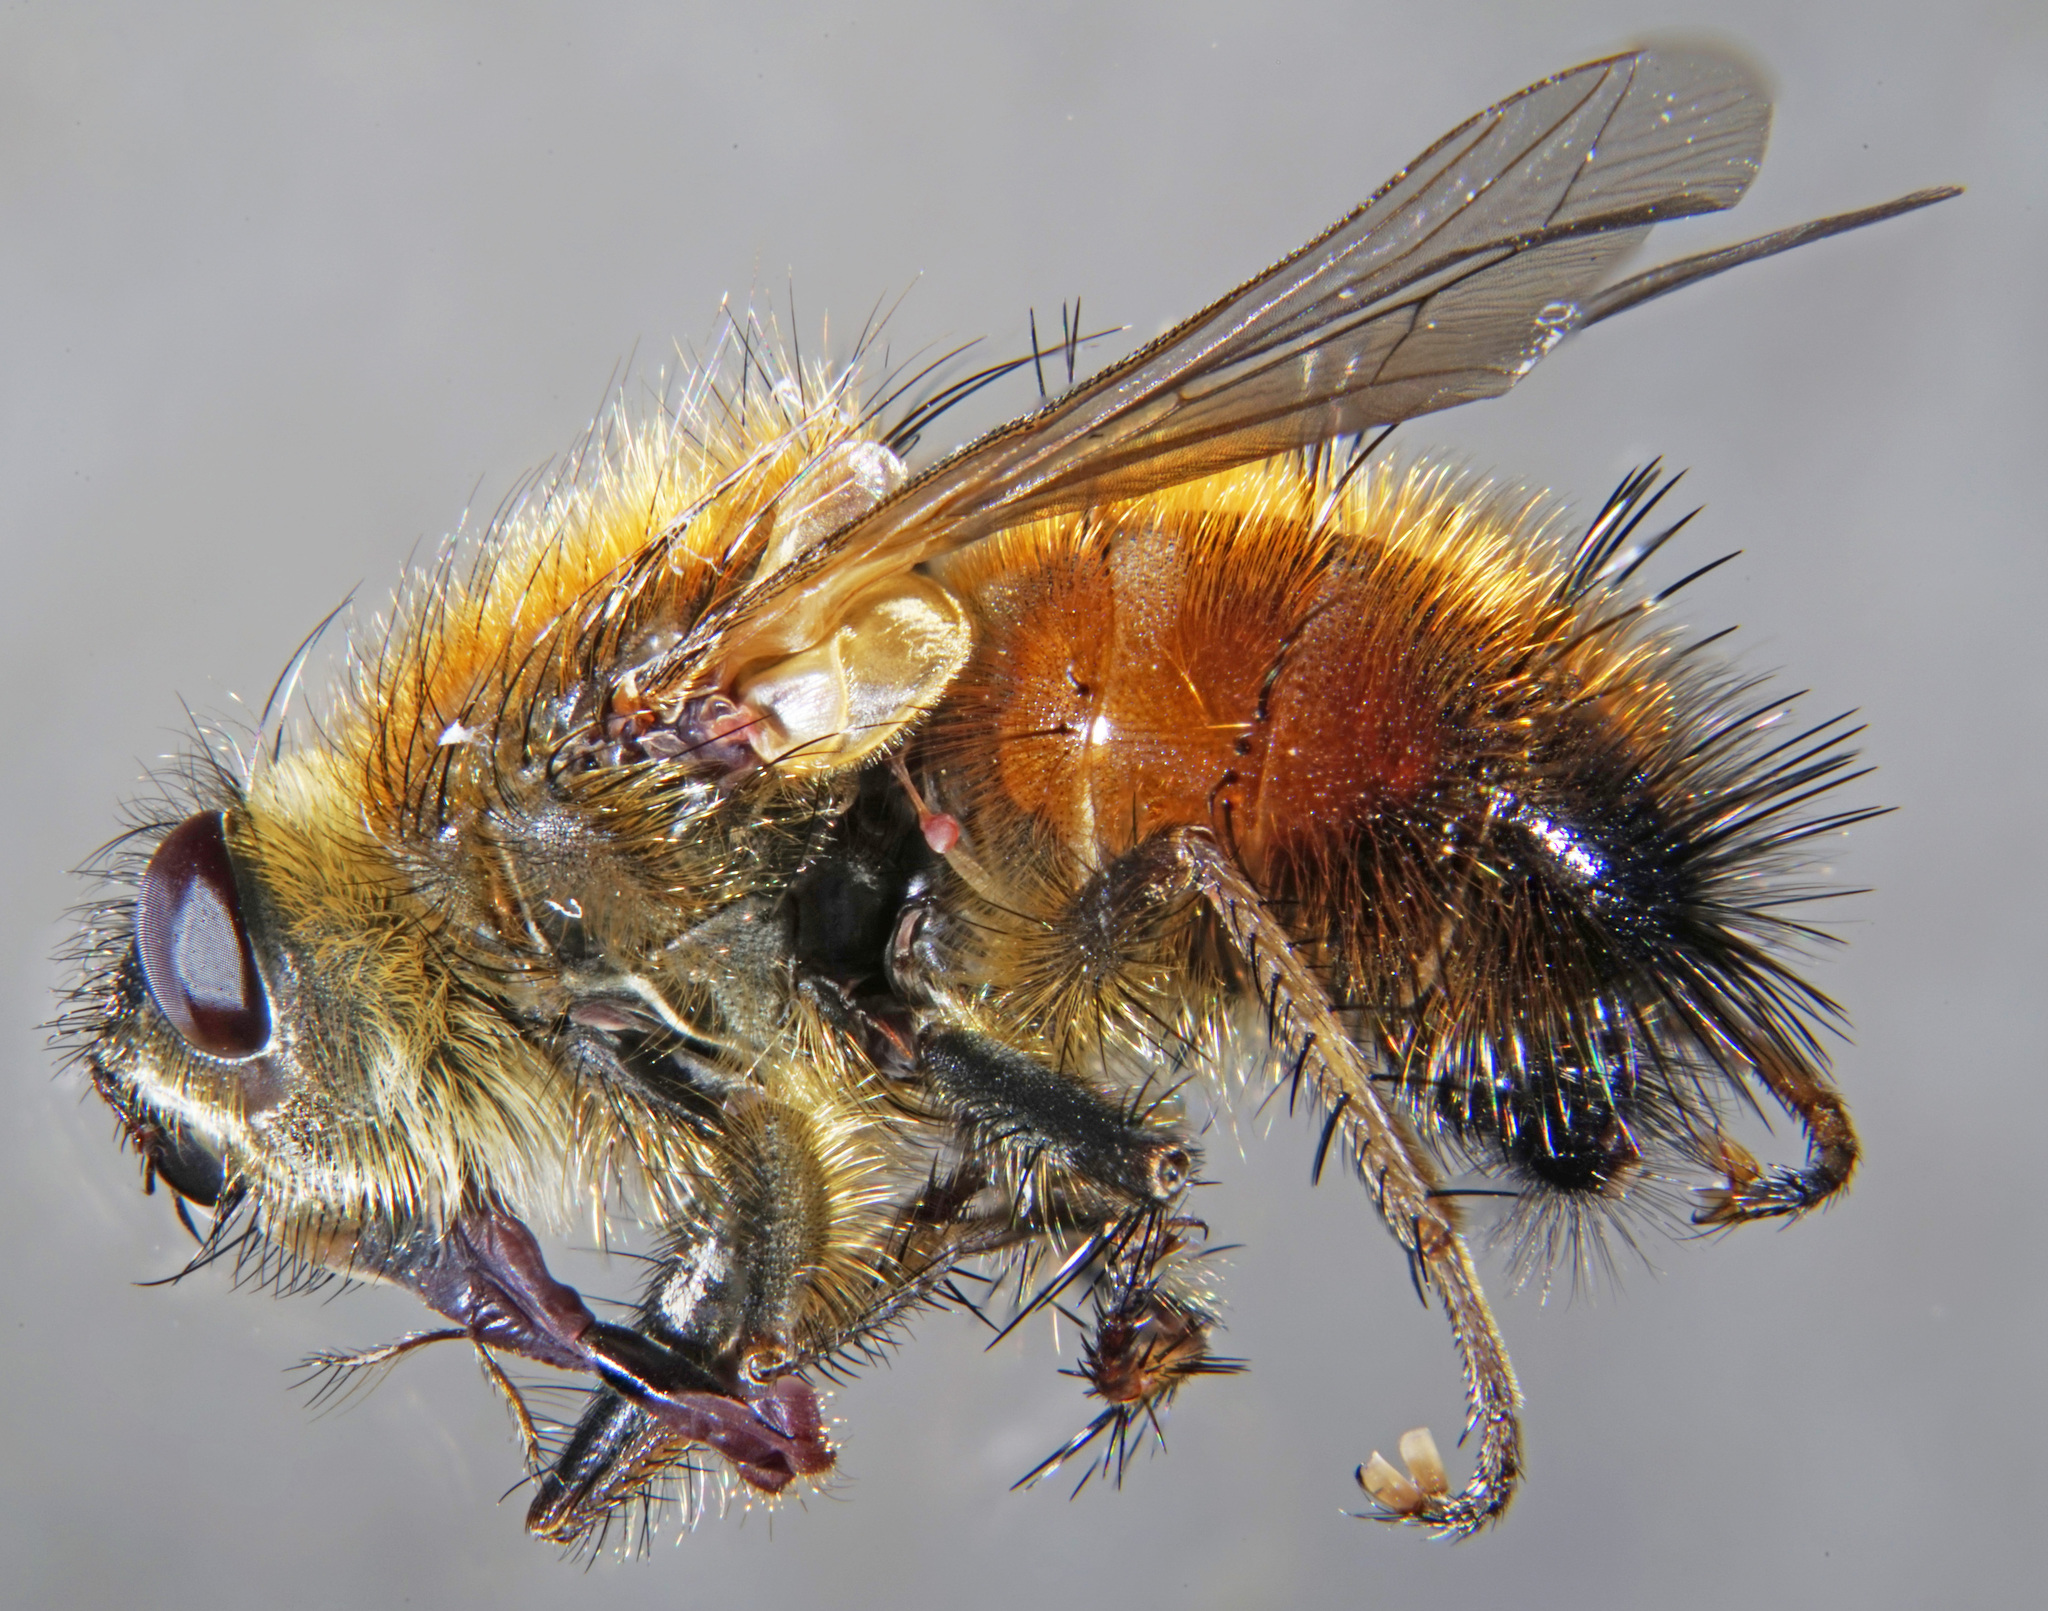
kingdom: Animalia
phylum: Arthropoda
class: Insecta
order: Diptera
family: Tachinidae
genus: Tachina
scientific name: Tachina lurida
